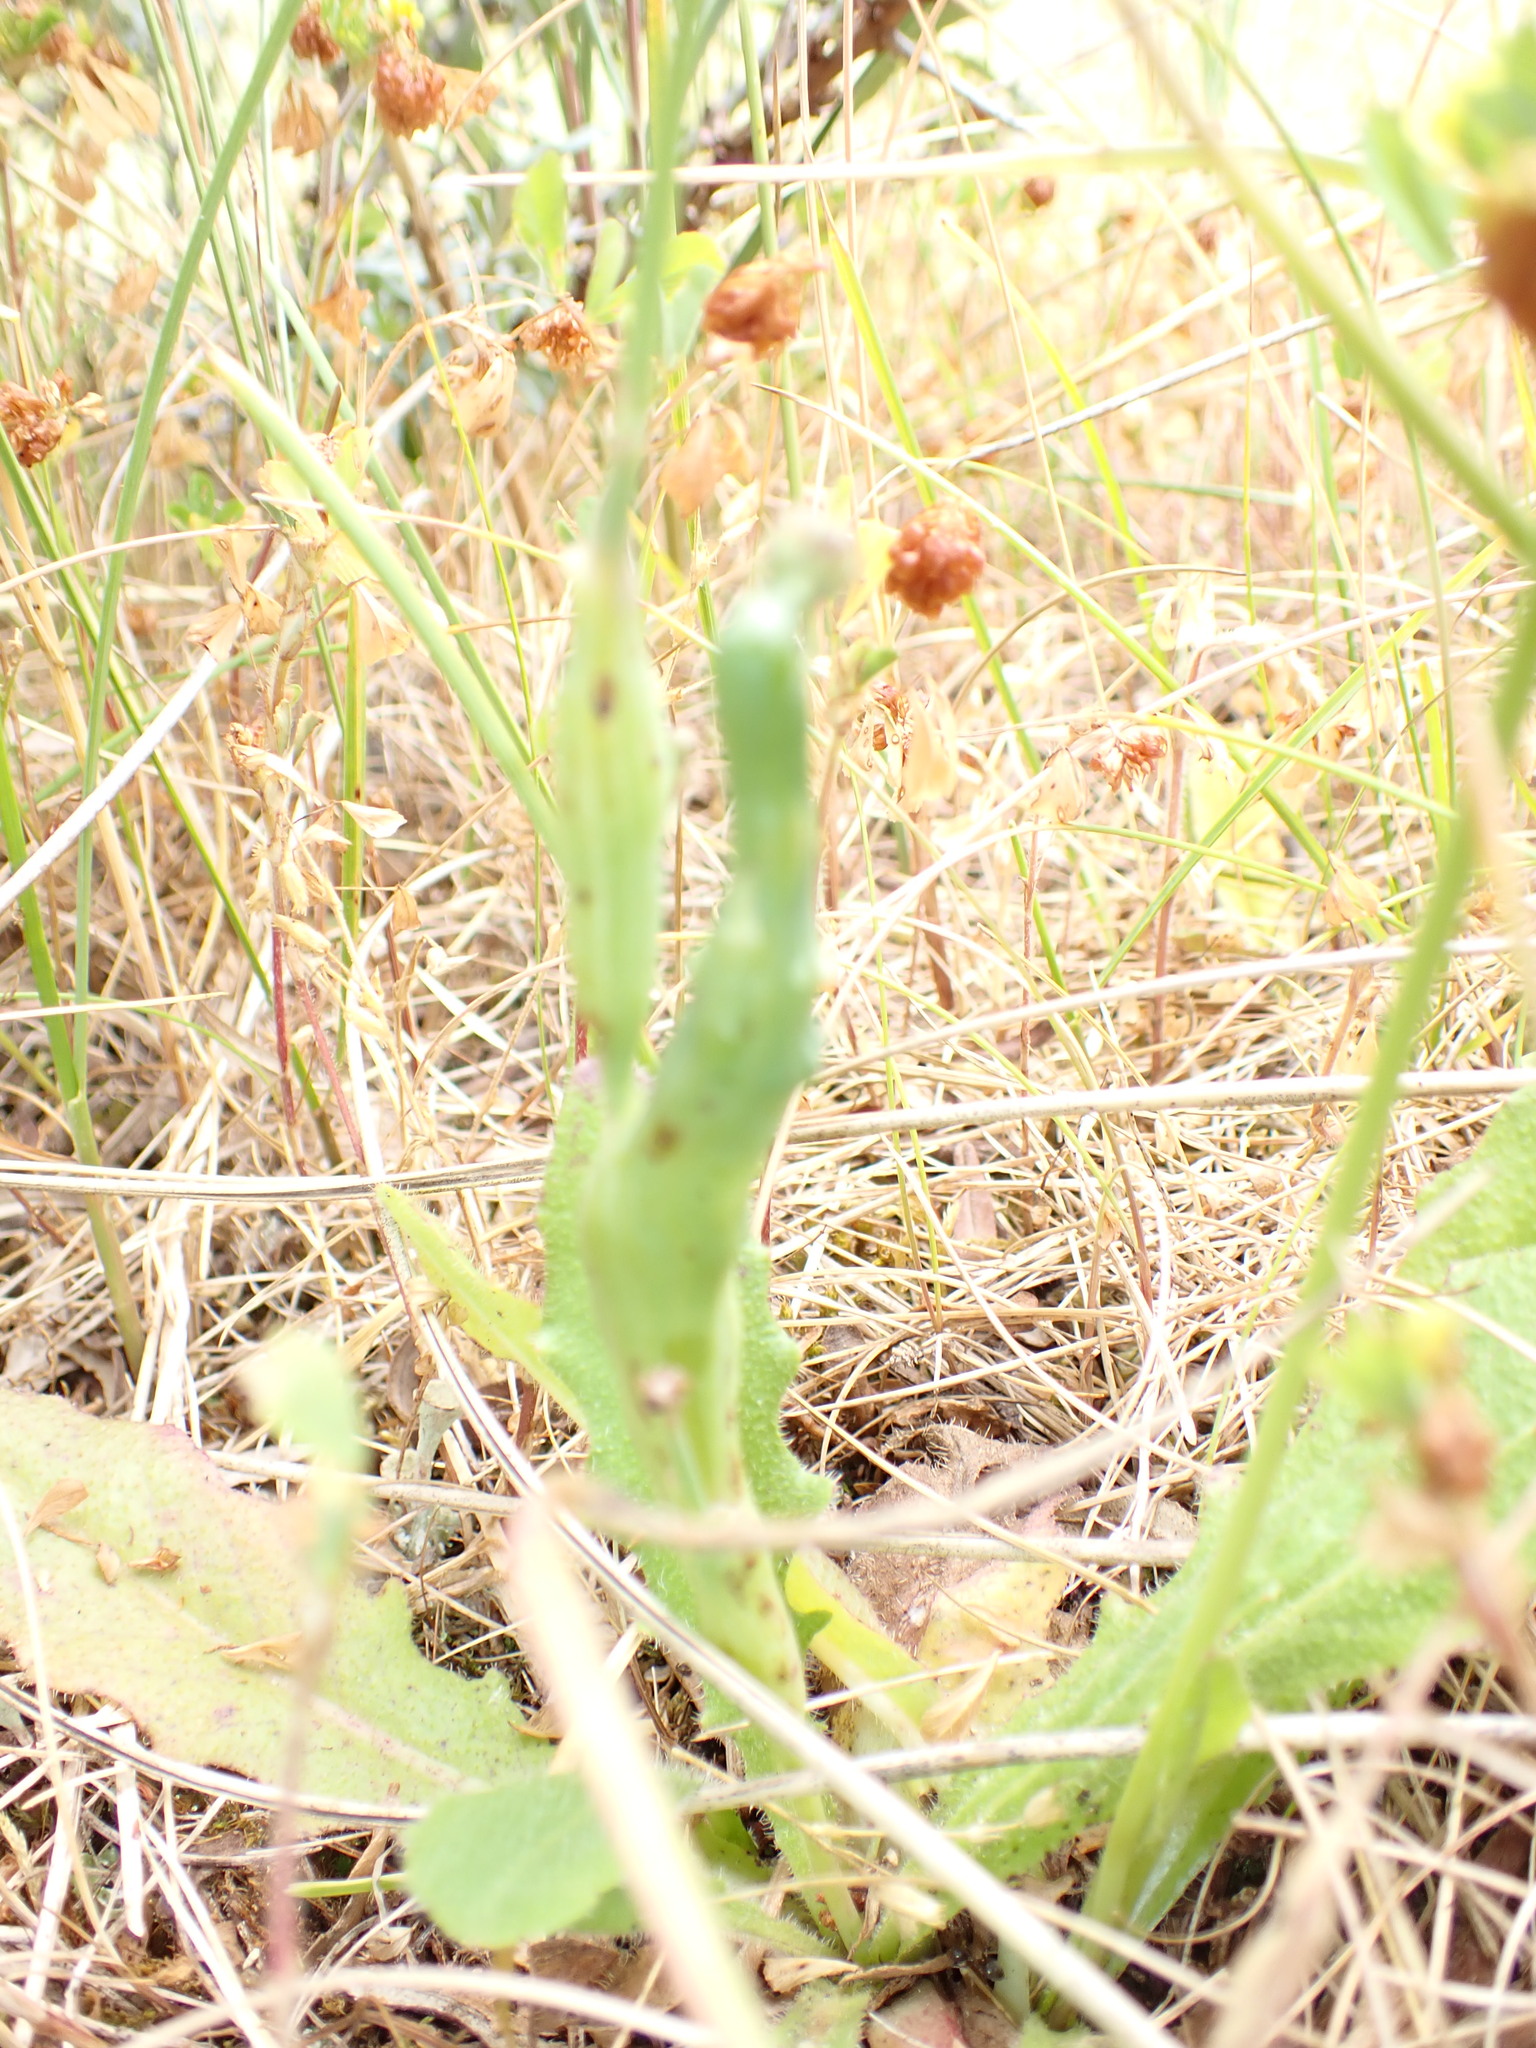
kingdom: Animalia
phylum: Arthropoda
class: Insecta
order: Hymenoptera
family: Cynipidae
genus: Phanacis
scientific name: Phanacis hypochoeridis
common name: Gall wasp
